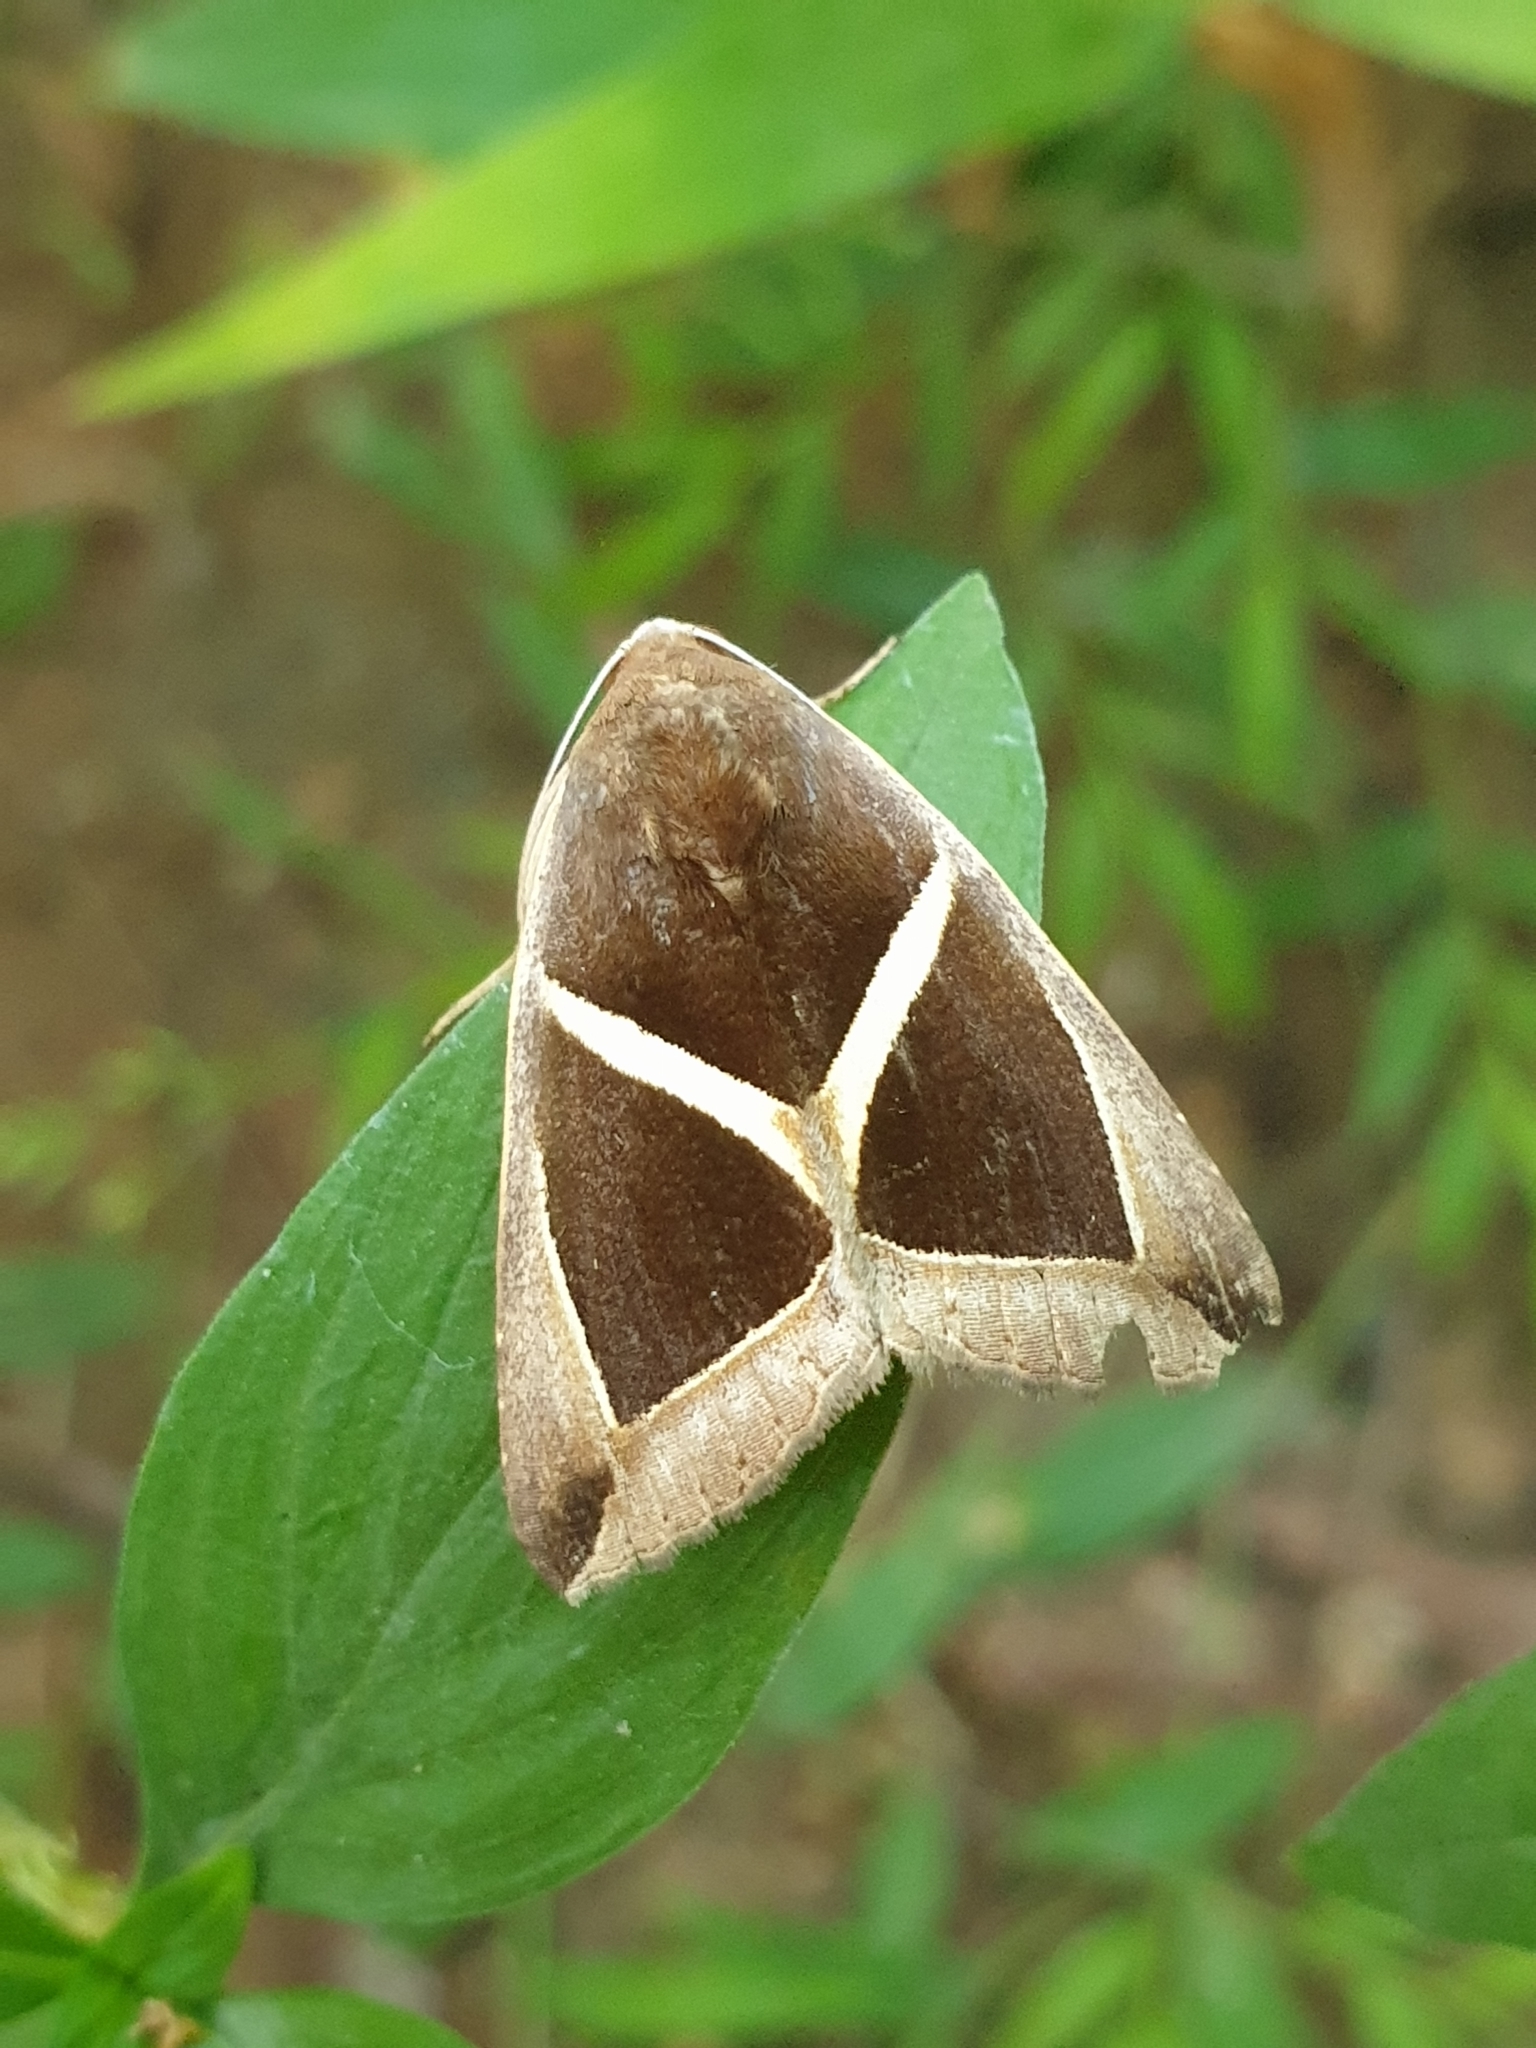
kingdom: Animalia
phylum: Arthropoda
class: Insecta
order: Lepidoptera
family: Erebidae
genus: Chalciope
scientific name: Chalciope mygdon
